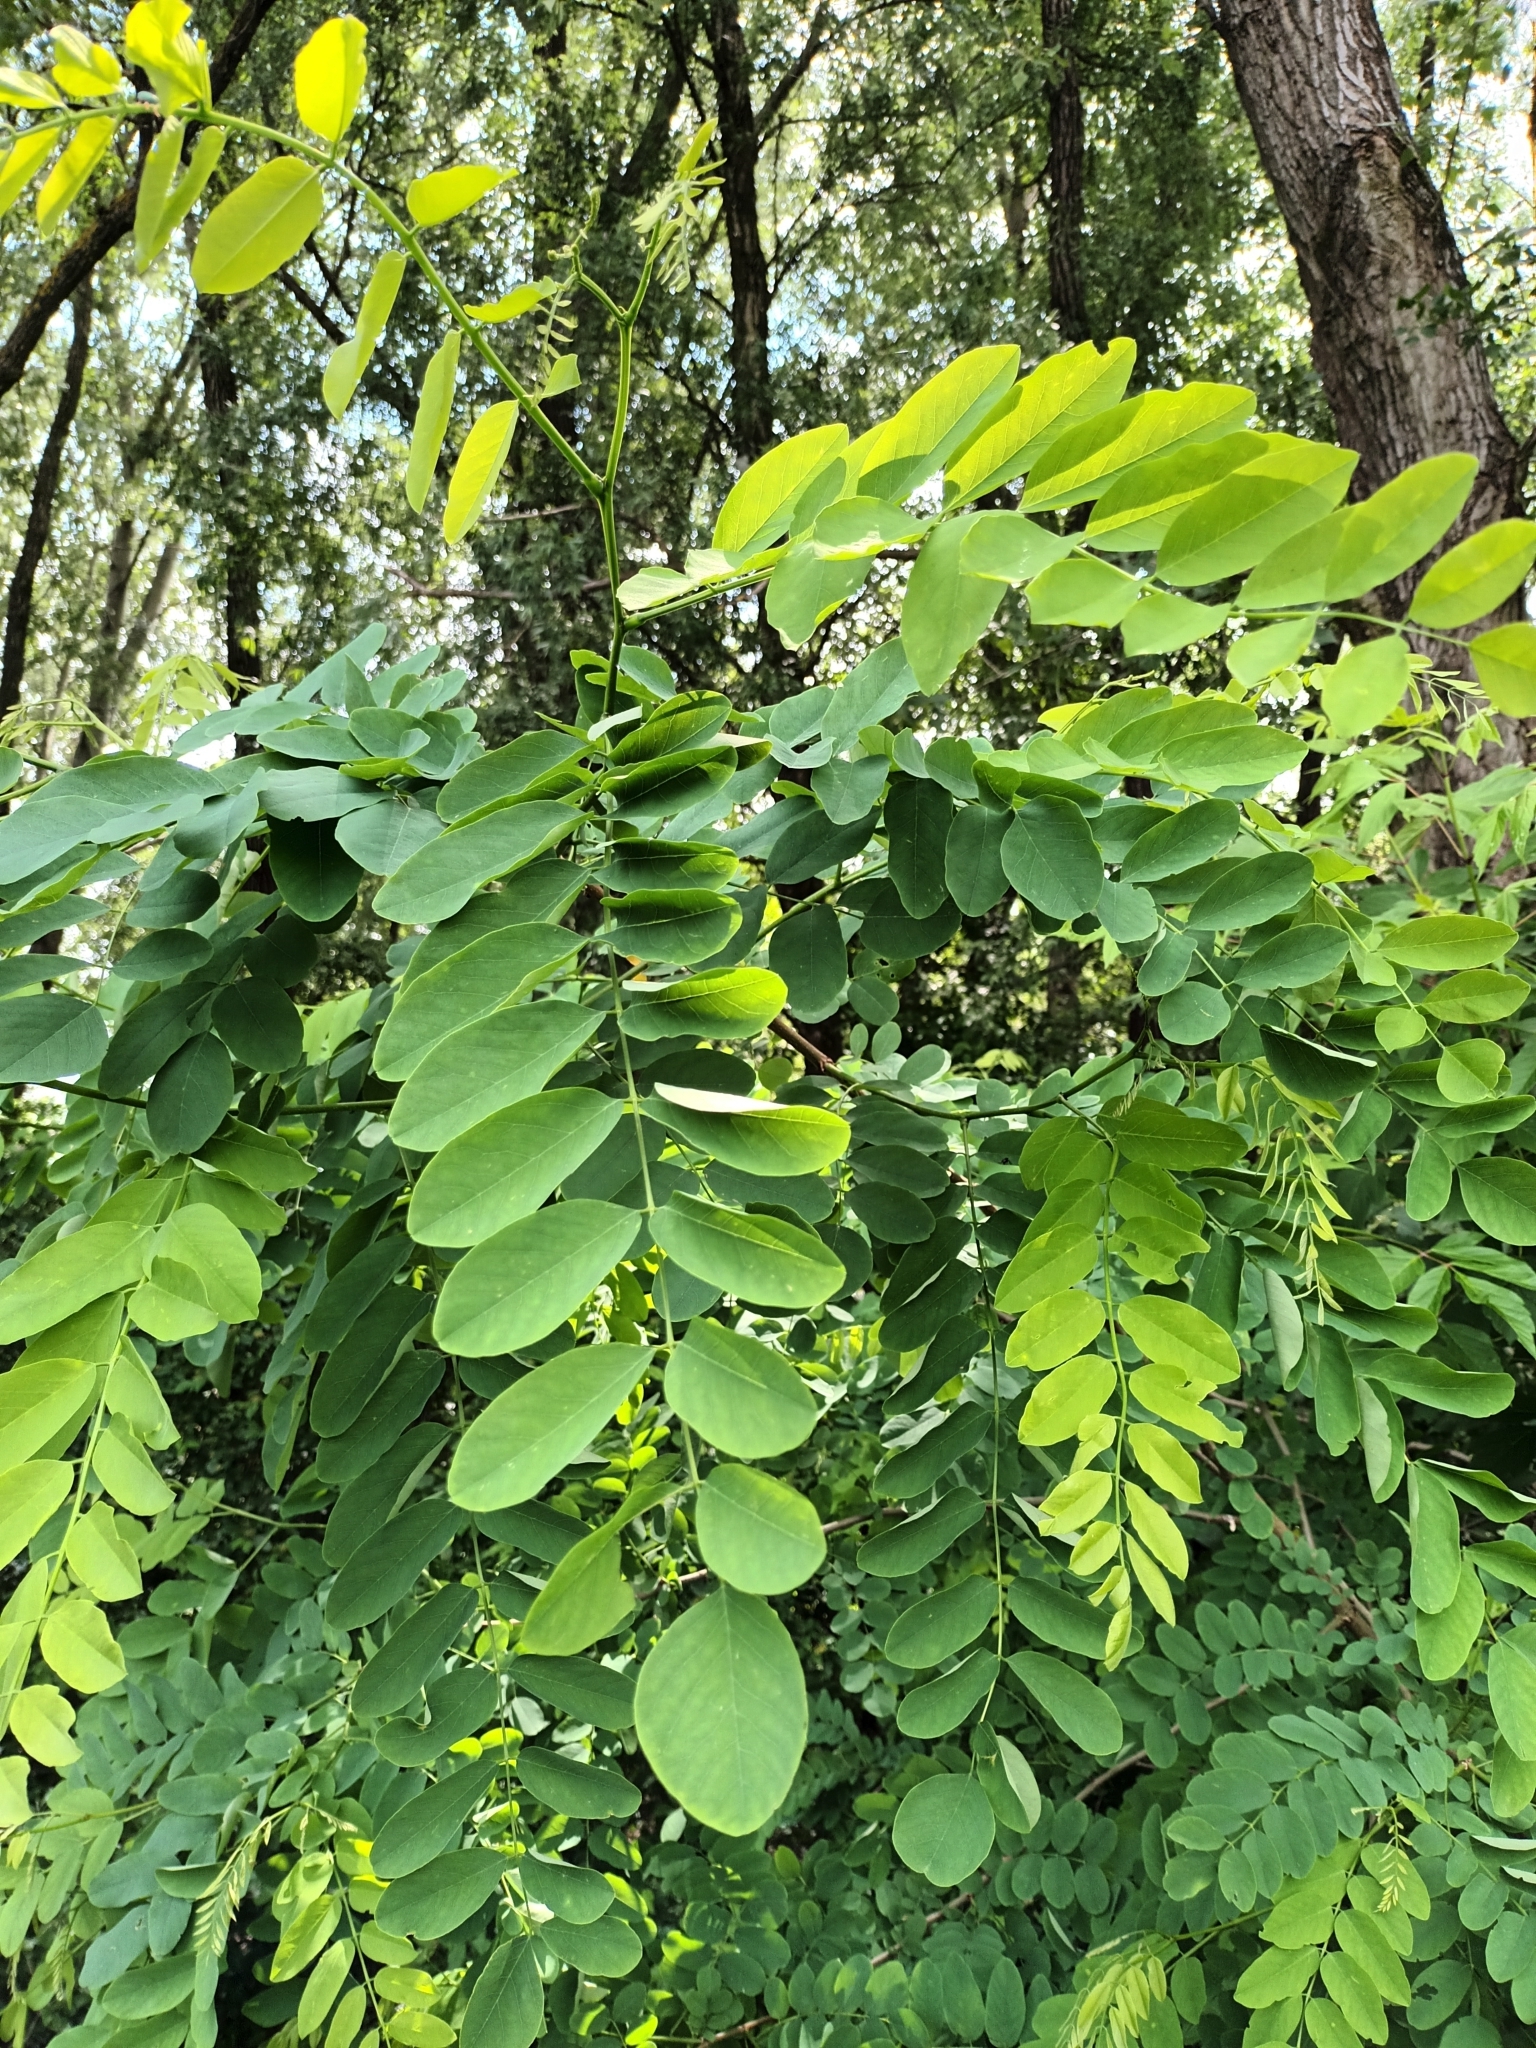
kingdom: Plantae
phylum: Tracheophyta
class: Magnoliopsida
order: Fabales
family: Fabaceae
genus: Robinia
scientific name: Robinia pseudoacacia
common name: Black locust
